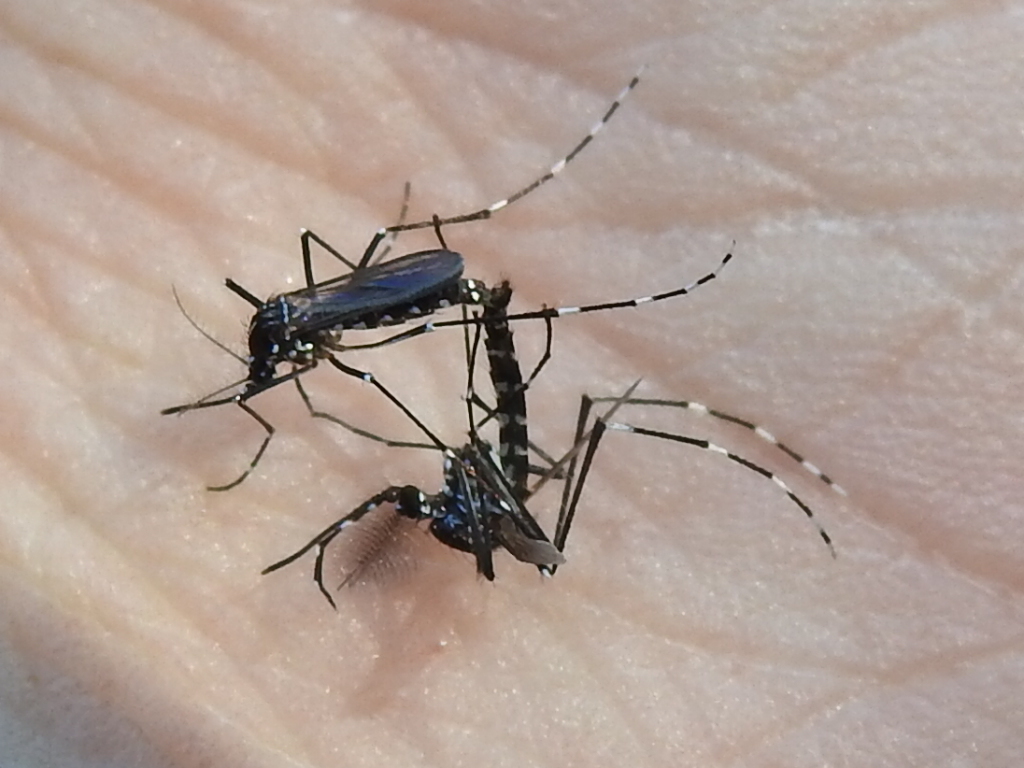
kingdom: Animalia
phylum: Arthropoda
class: Insecta
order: Diptera
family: Culicidae
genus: Aedes
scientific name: Aedes albopictus
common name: Tiger mosquito
